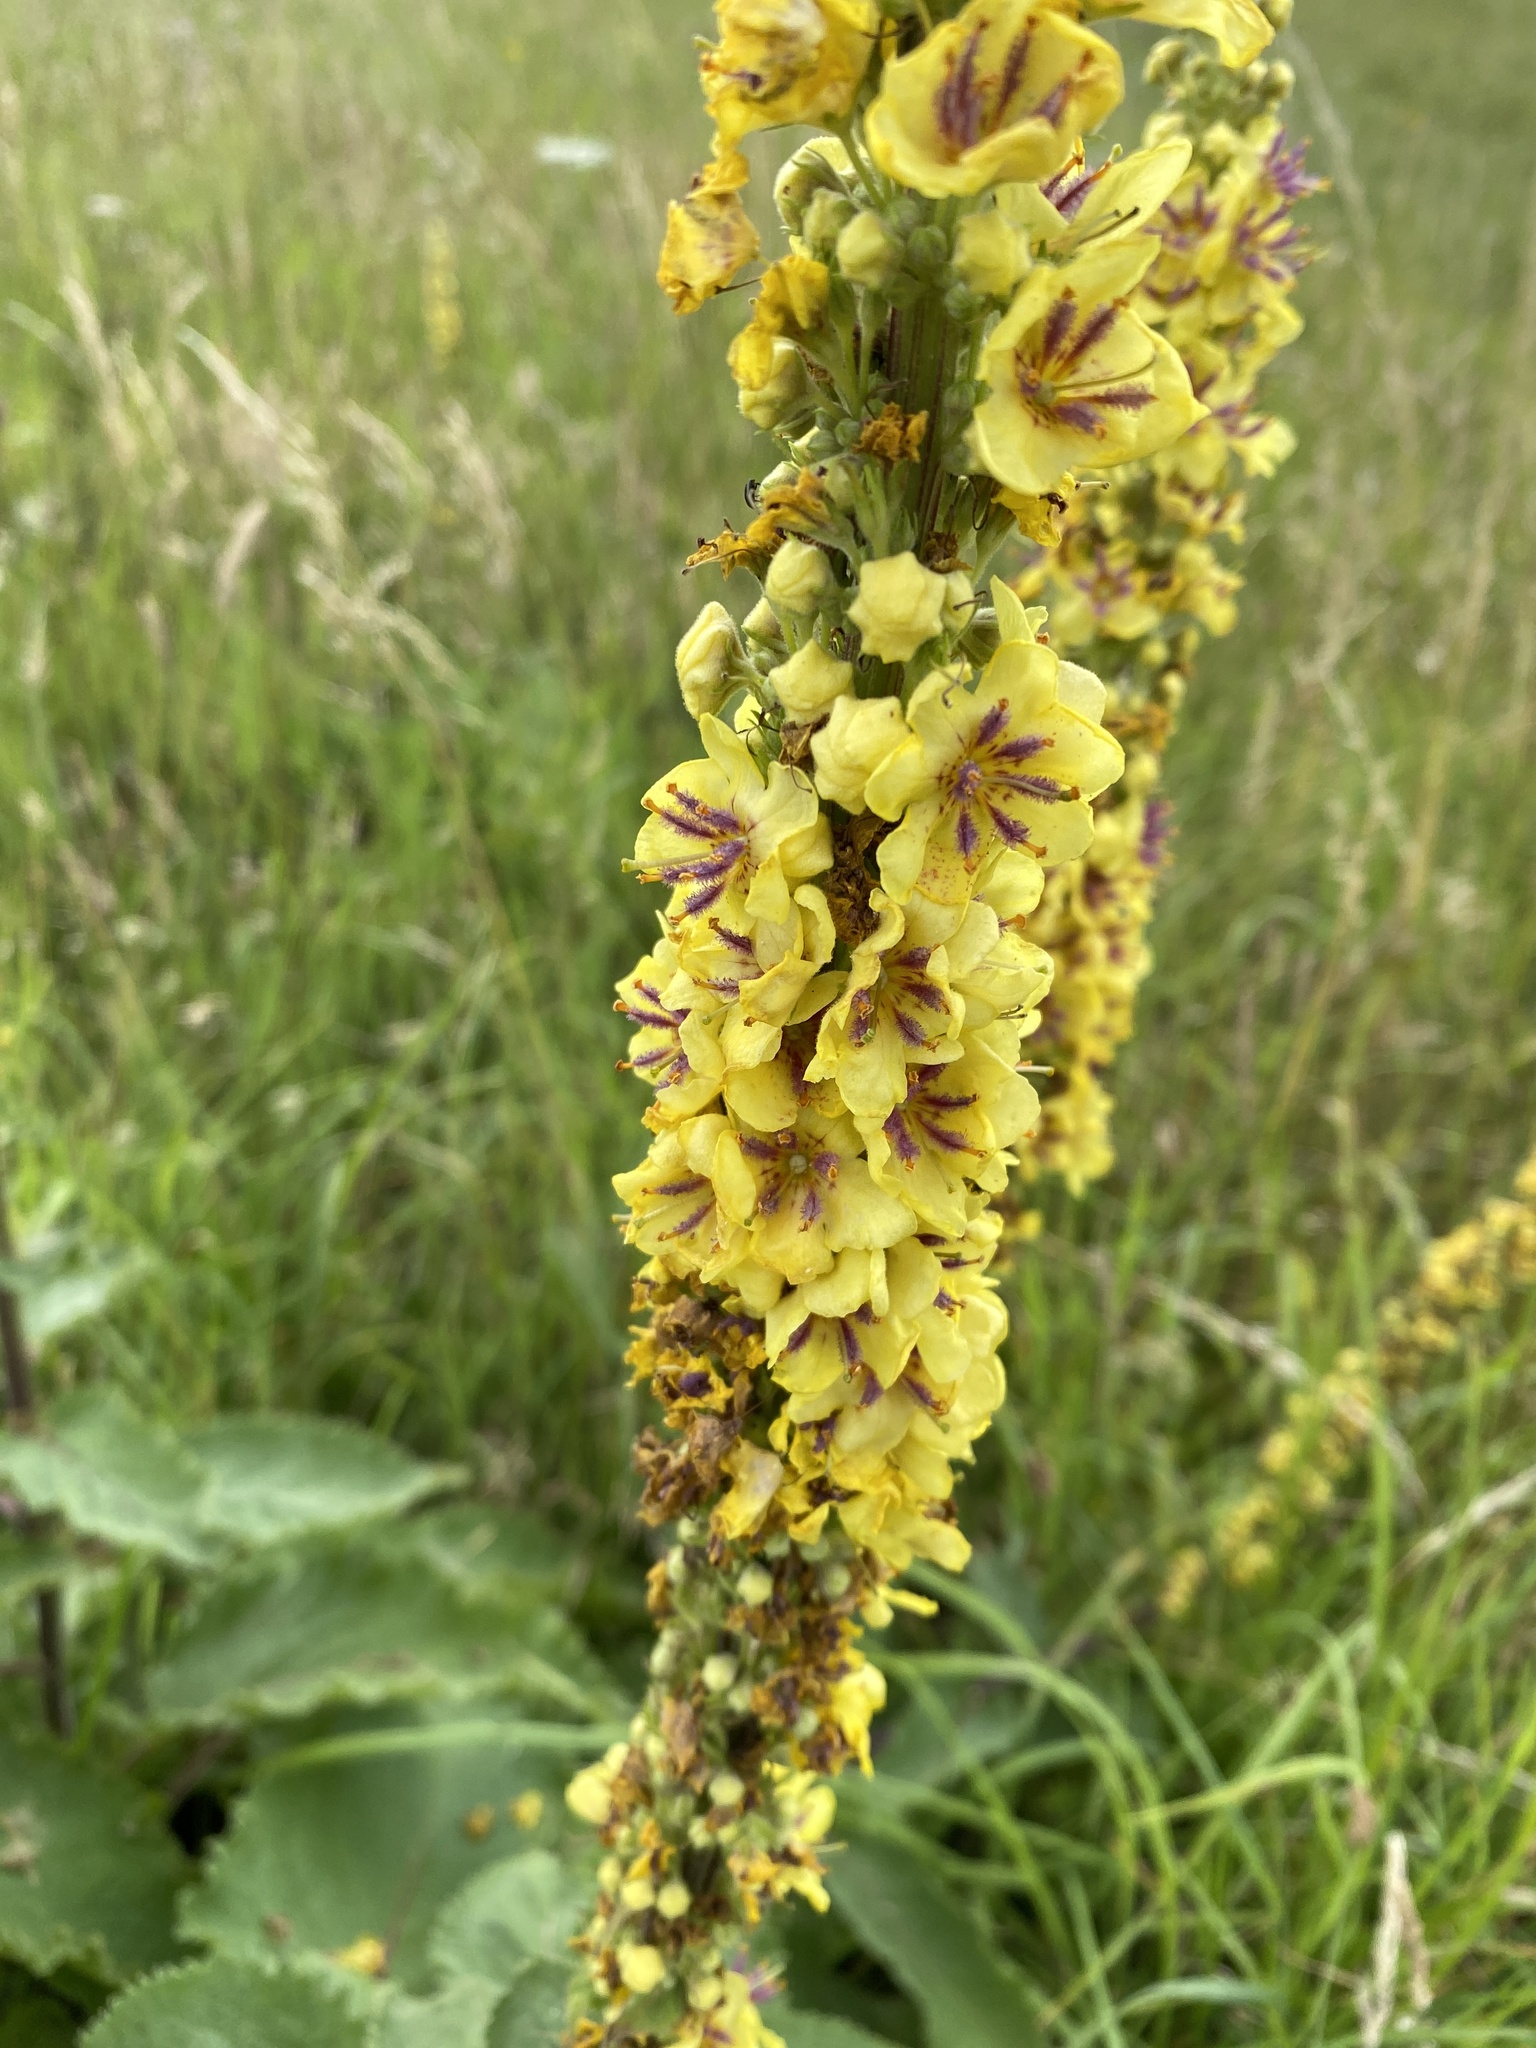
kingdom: Plantae
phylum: Tracheophyta
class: Magnoliopsida
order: Lamiales
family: Scrophulariaceae
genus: Verbascum
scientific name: Verbascum nigrum
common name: Dark mullein
